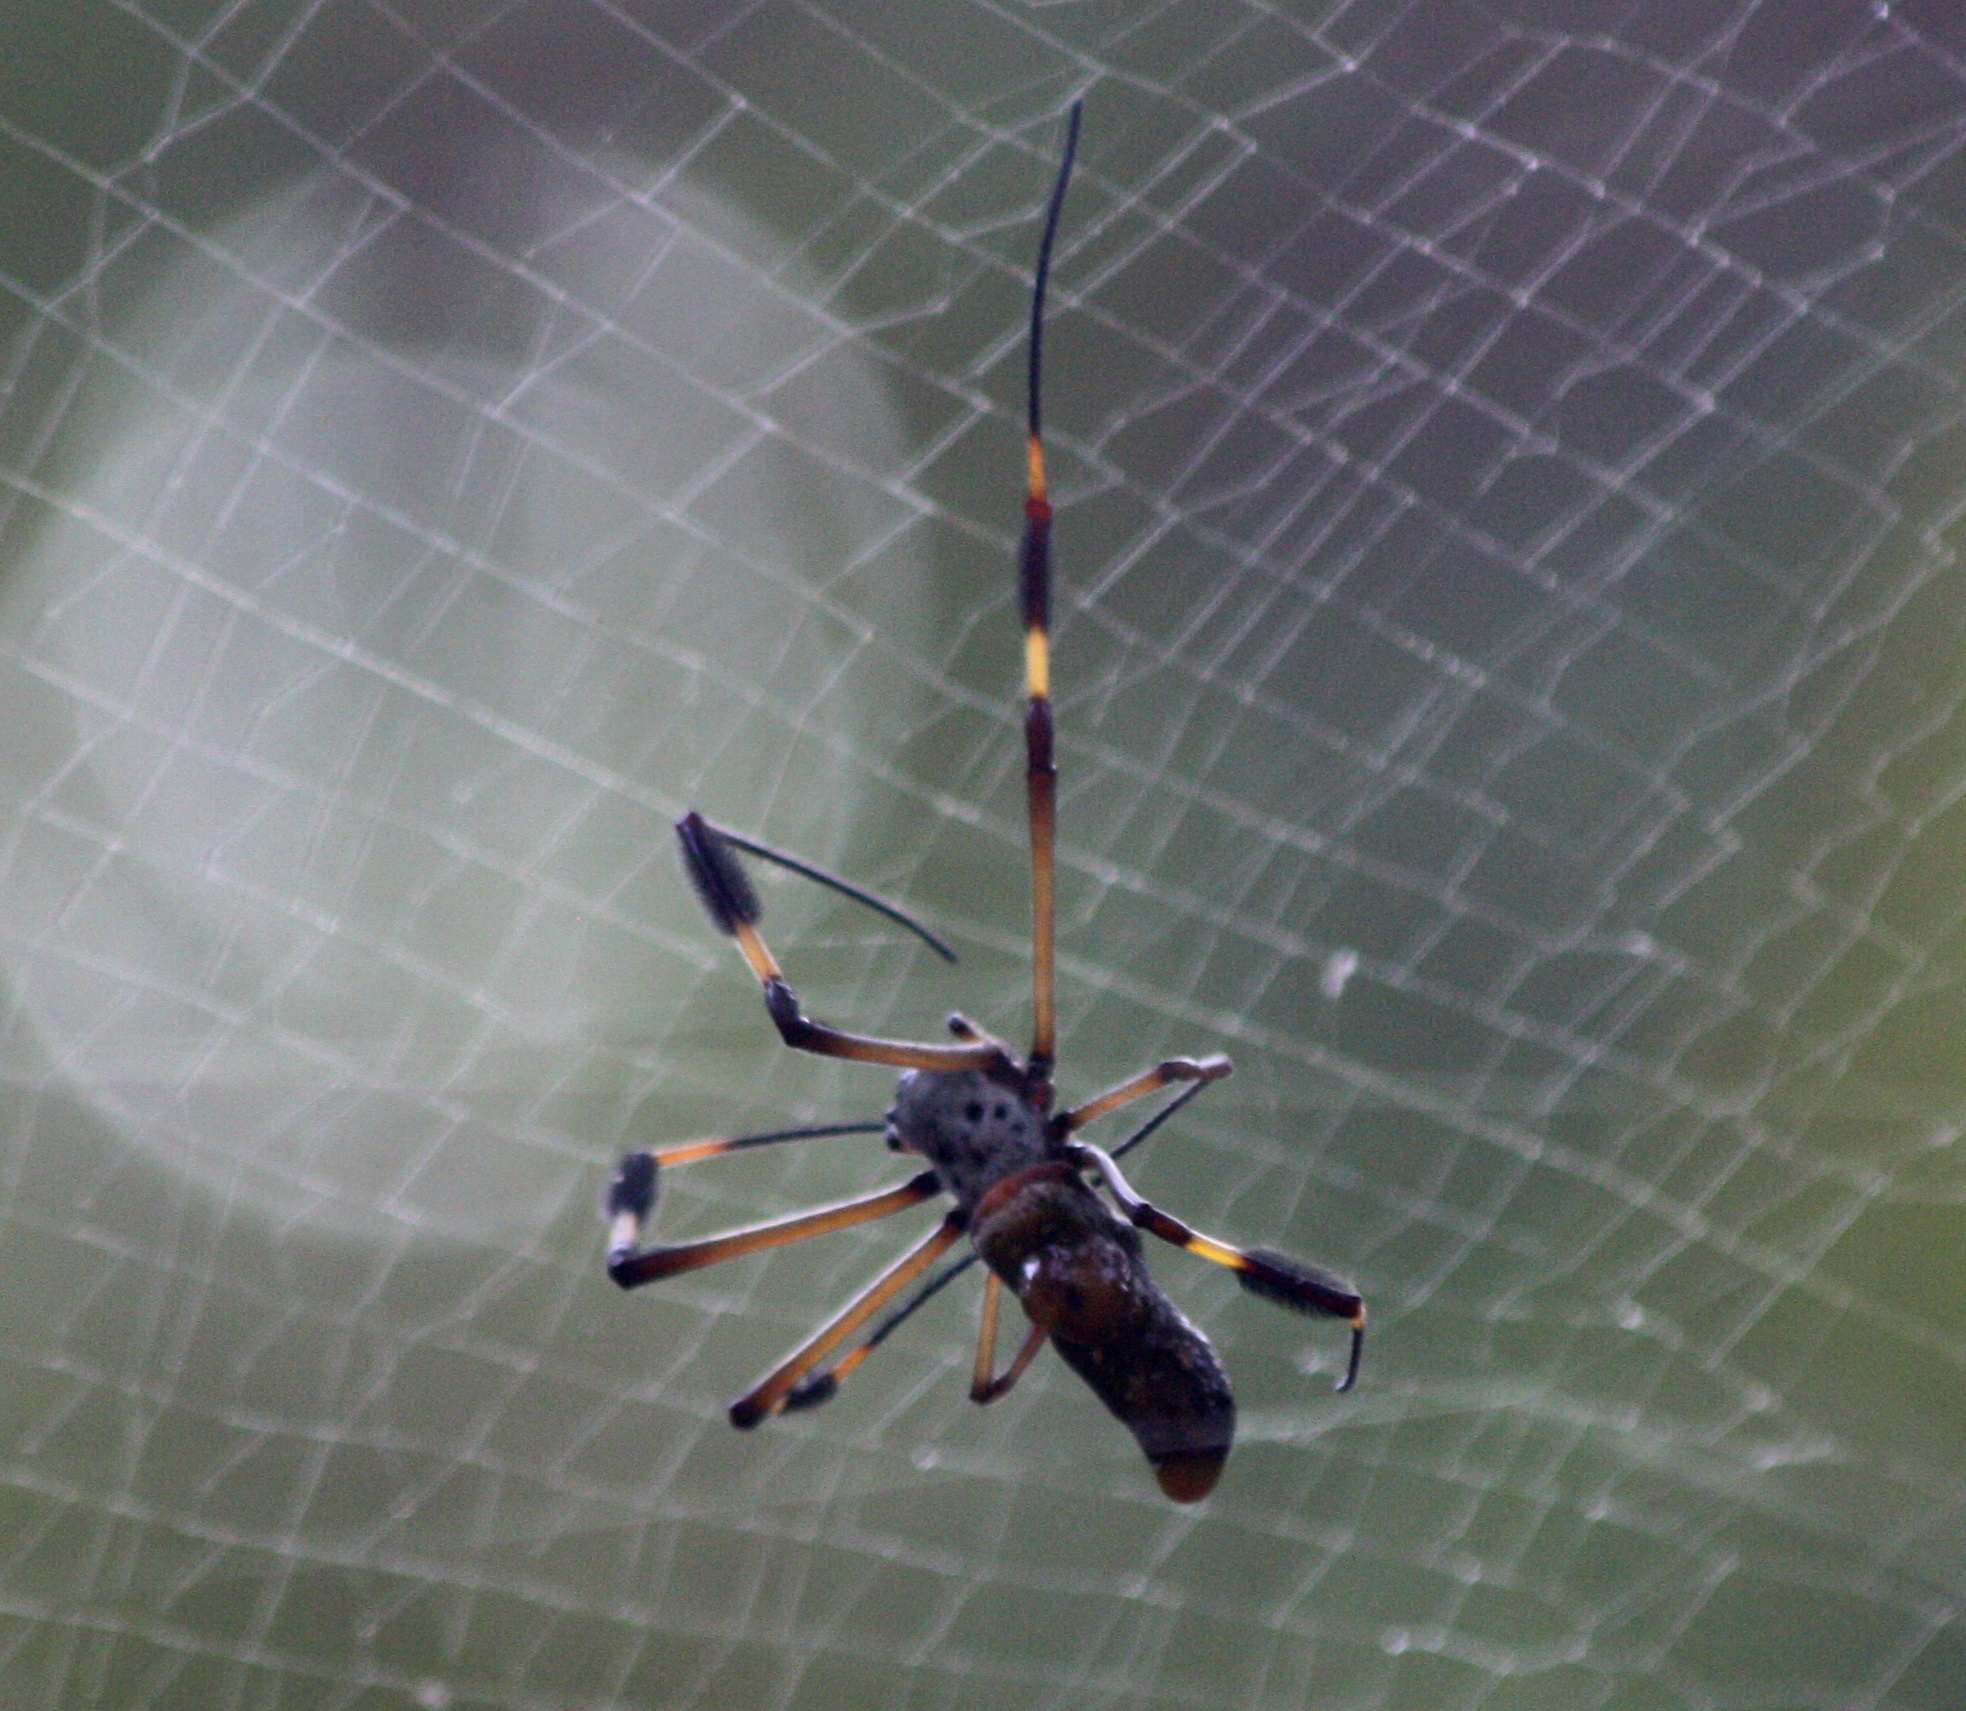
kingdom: Animalia
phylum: Arthropoda
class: Arachnida
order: Araneae
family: Araneidae
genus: Trichonephila
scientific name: Trichonephila clavipes
